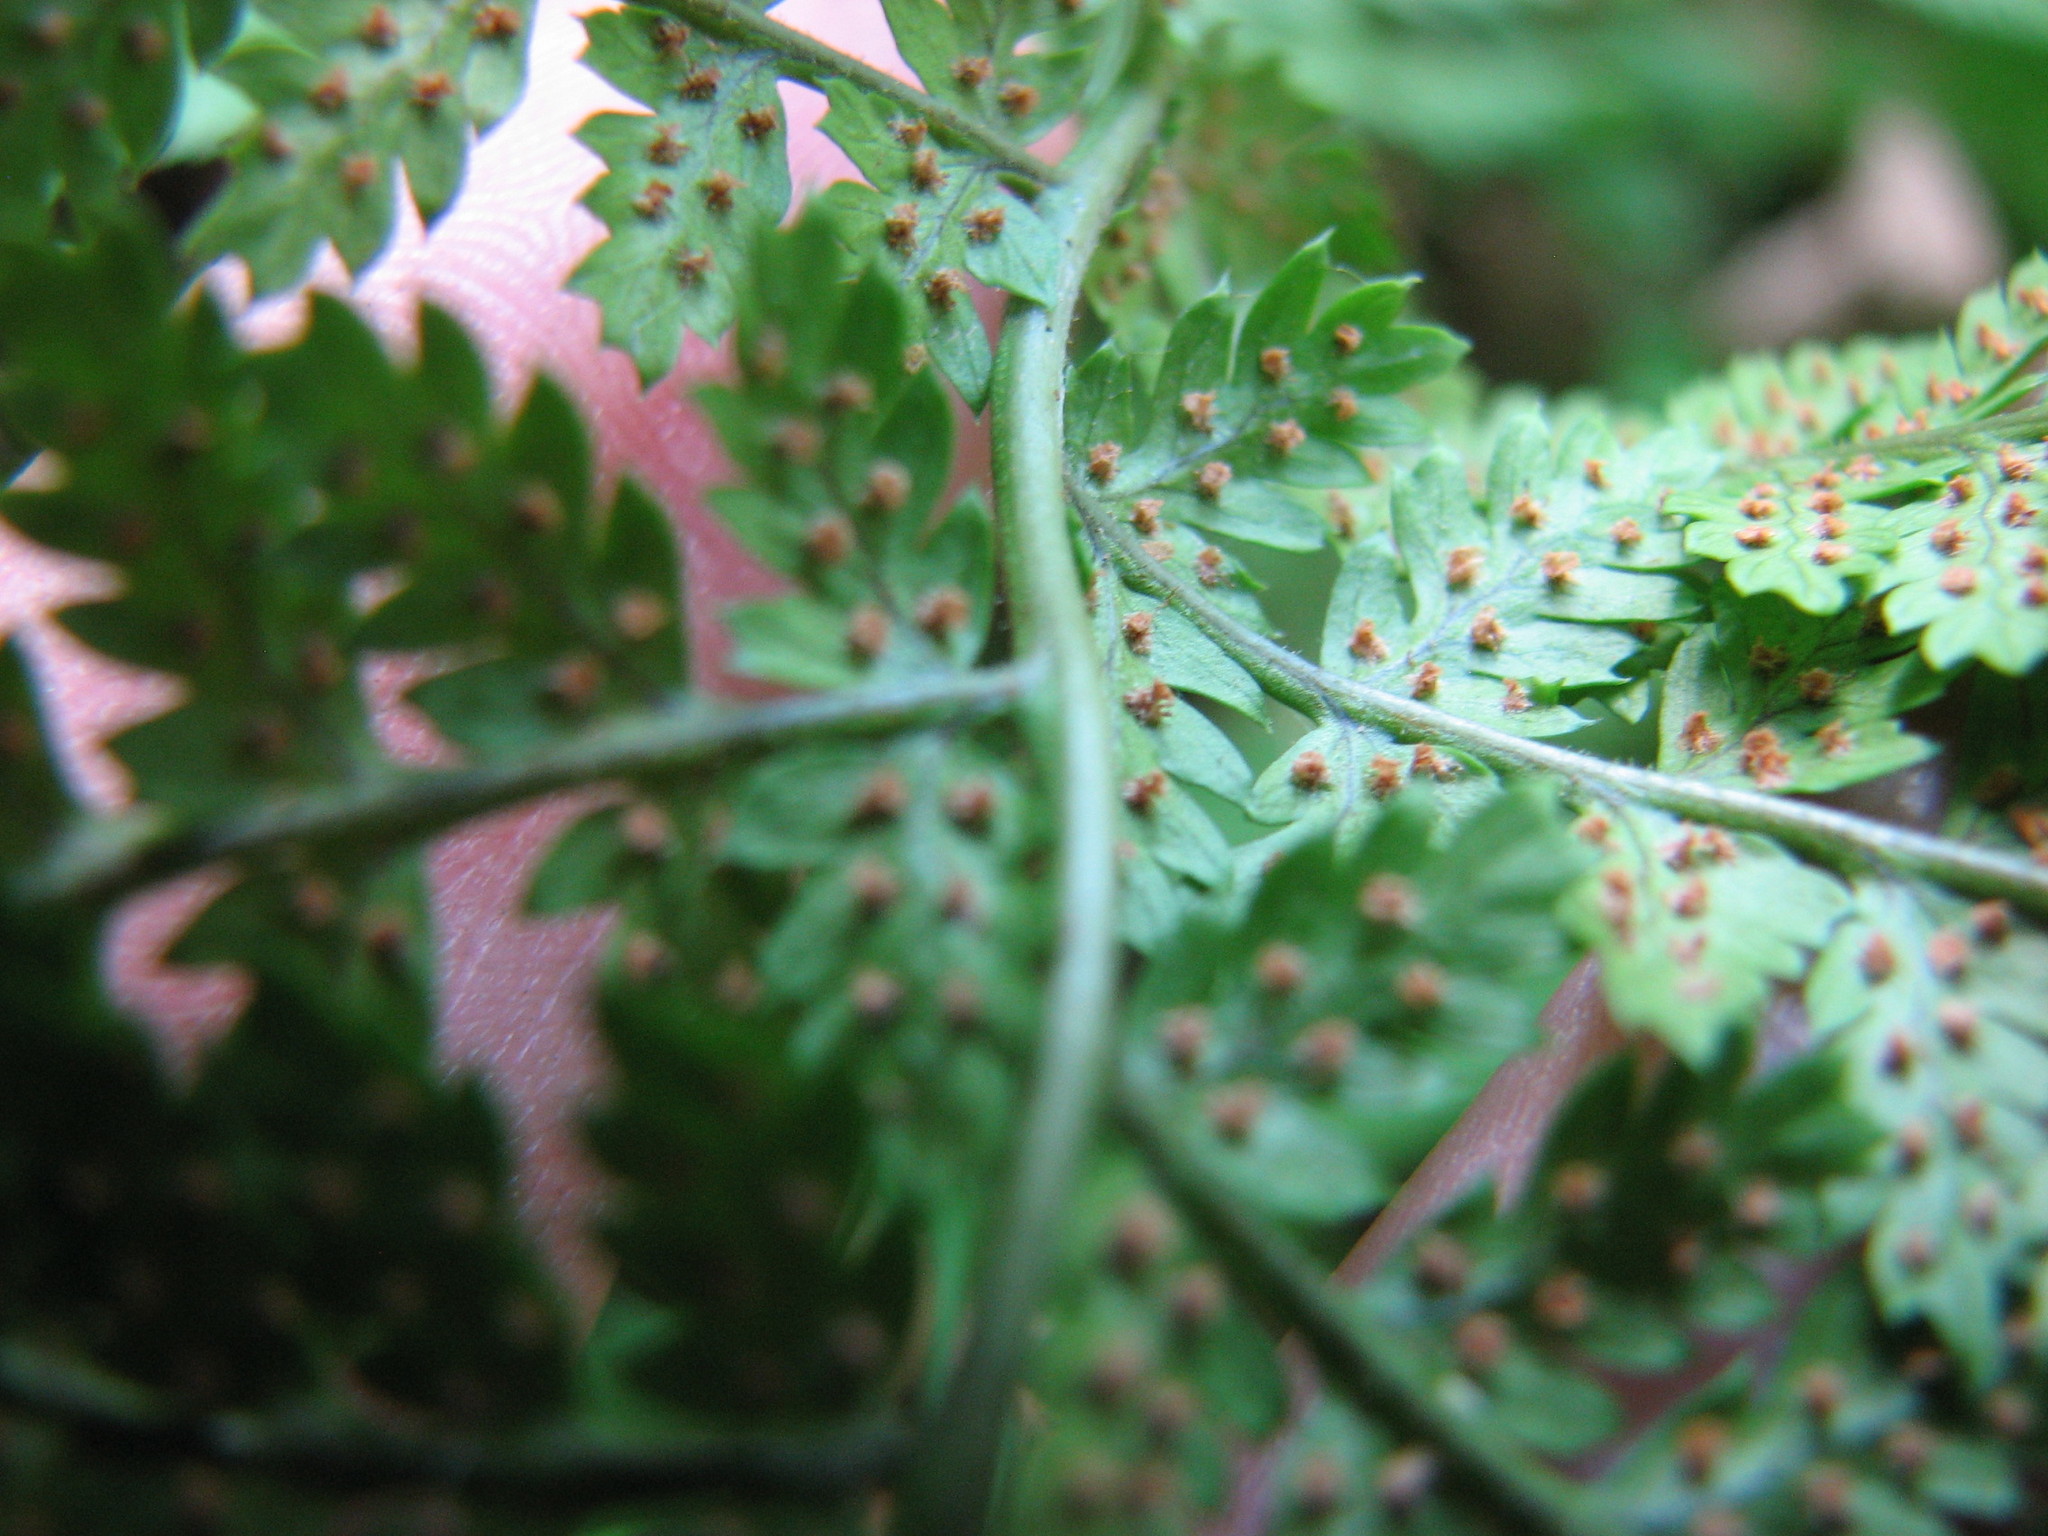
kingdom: Plantae
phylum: Tracheophyta
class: Polypodiopsida
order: Polypodiales
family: Dryopteridaceae
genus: Dryopteris
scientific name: Dryopteris intermedia
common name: Evergreen wood fern
